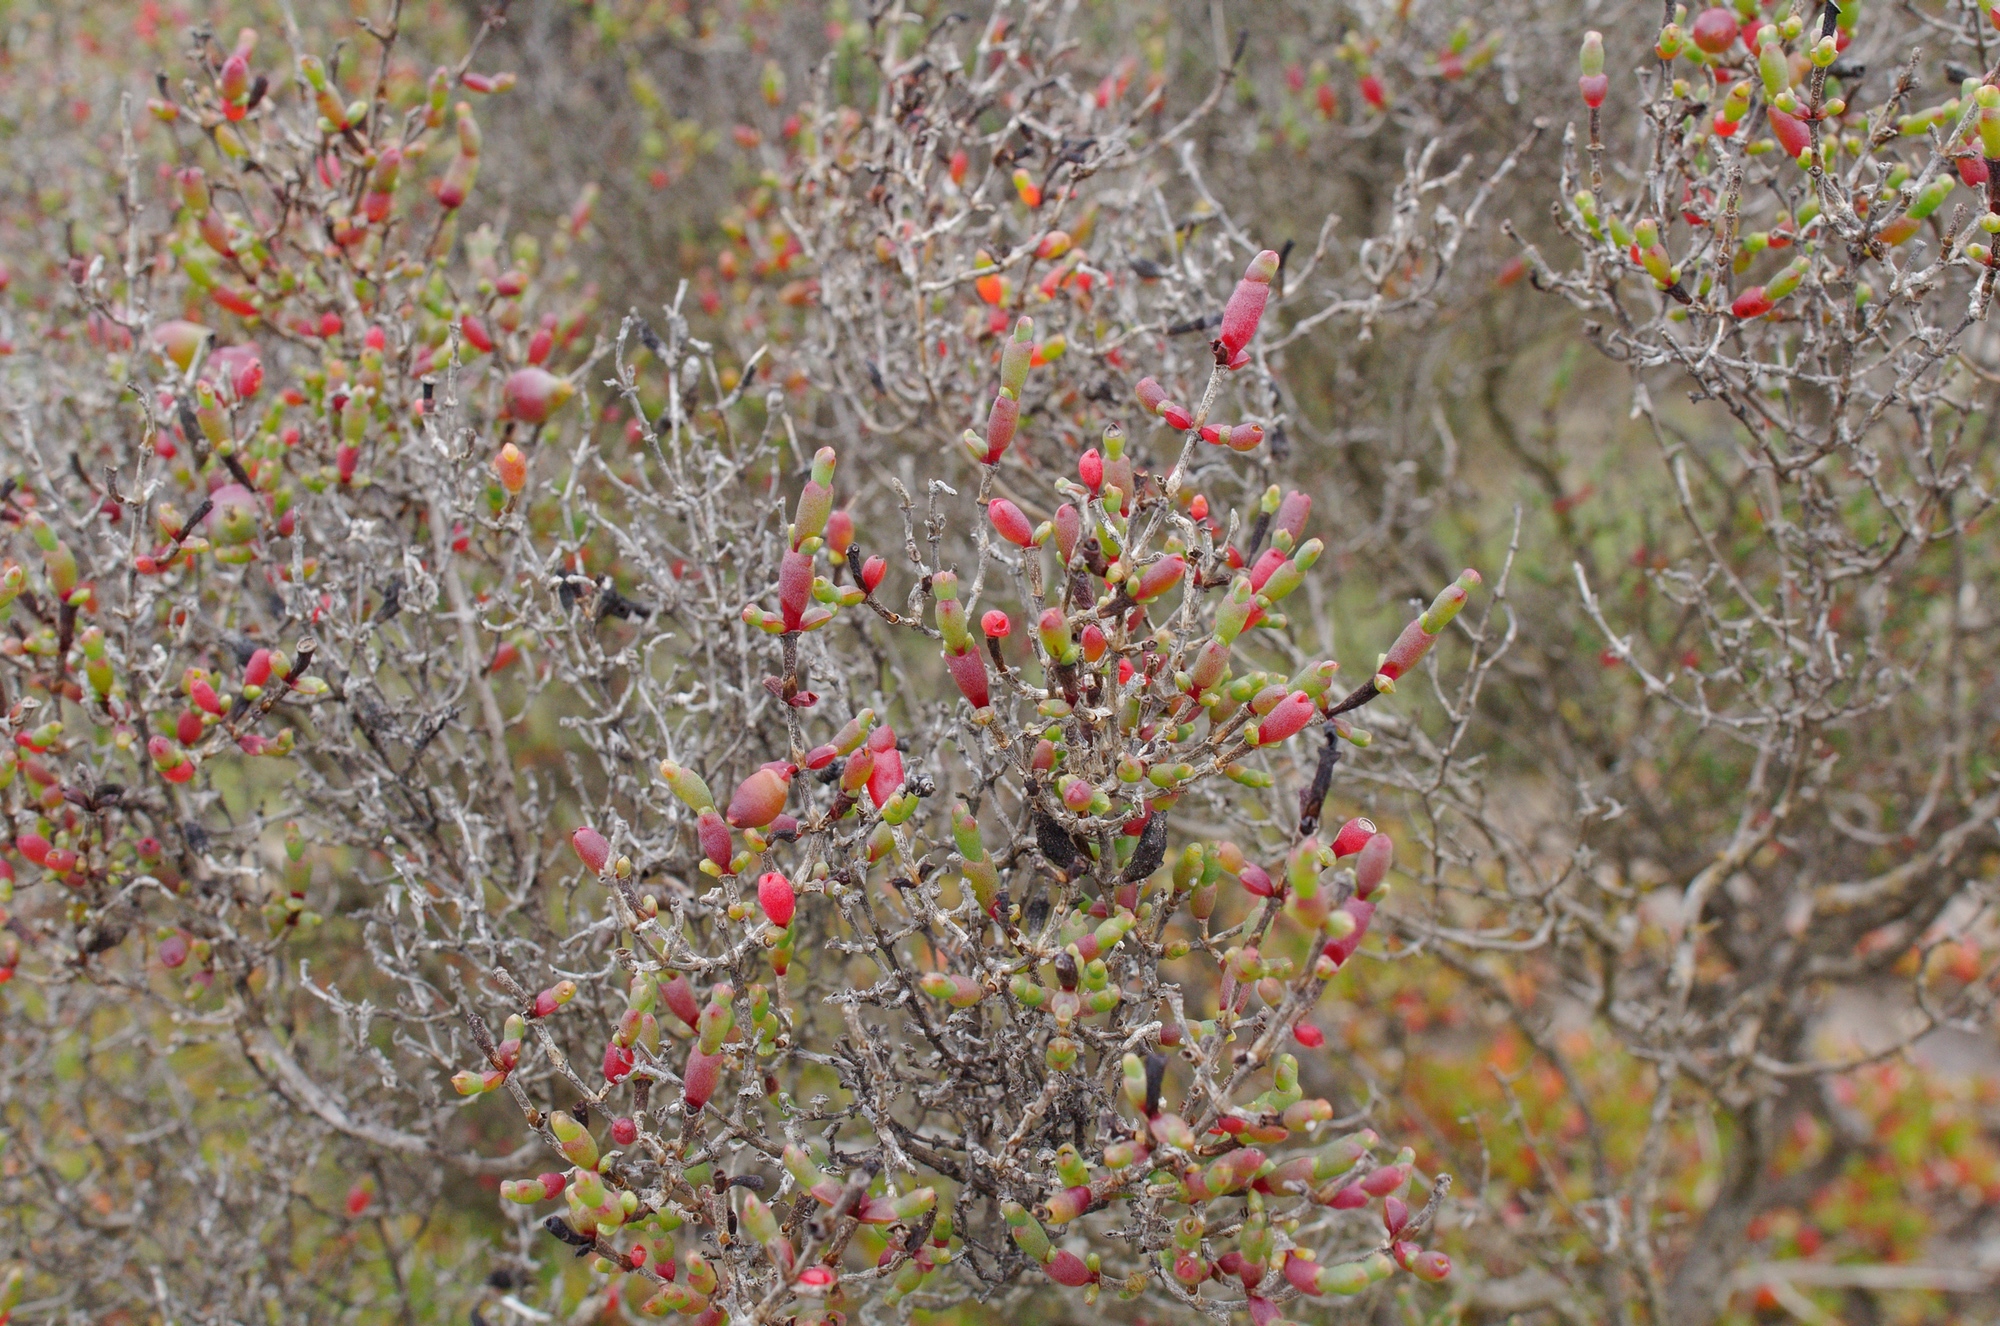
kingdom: Plantae
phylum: Tracheophyta
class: Magnoliopsida
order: Caryophyllales
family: Amaranthaceae
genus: Tecticornia
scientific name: Tecticornia arbuscula
